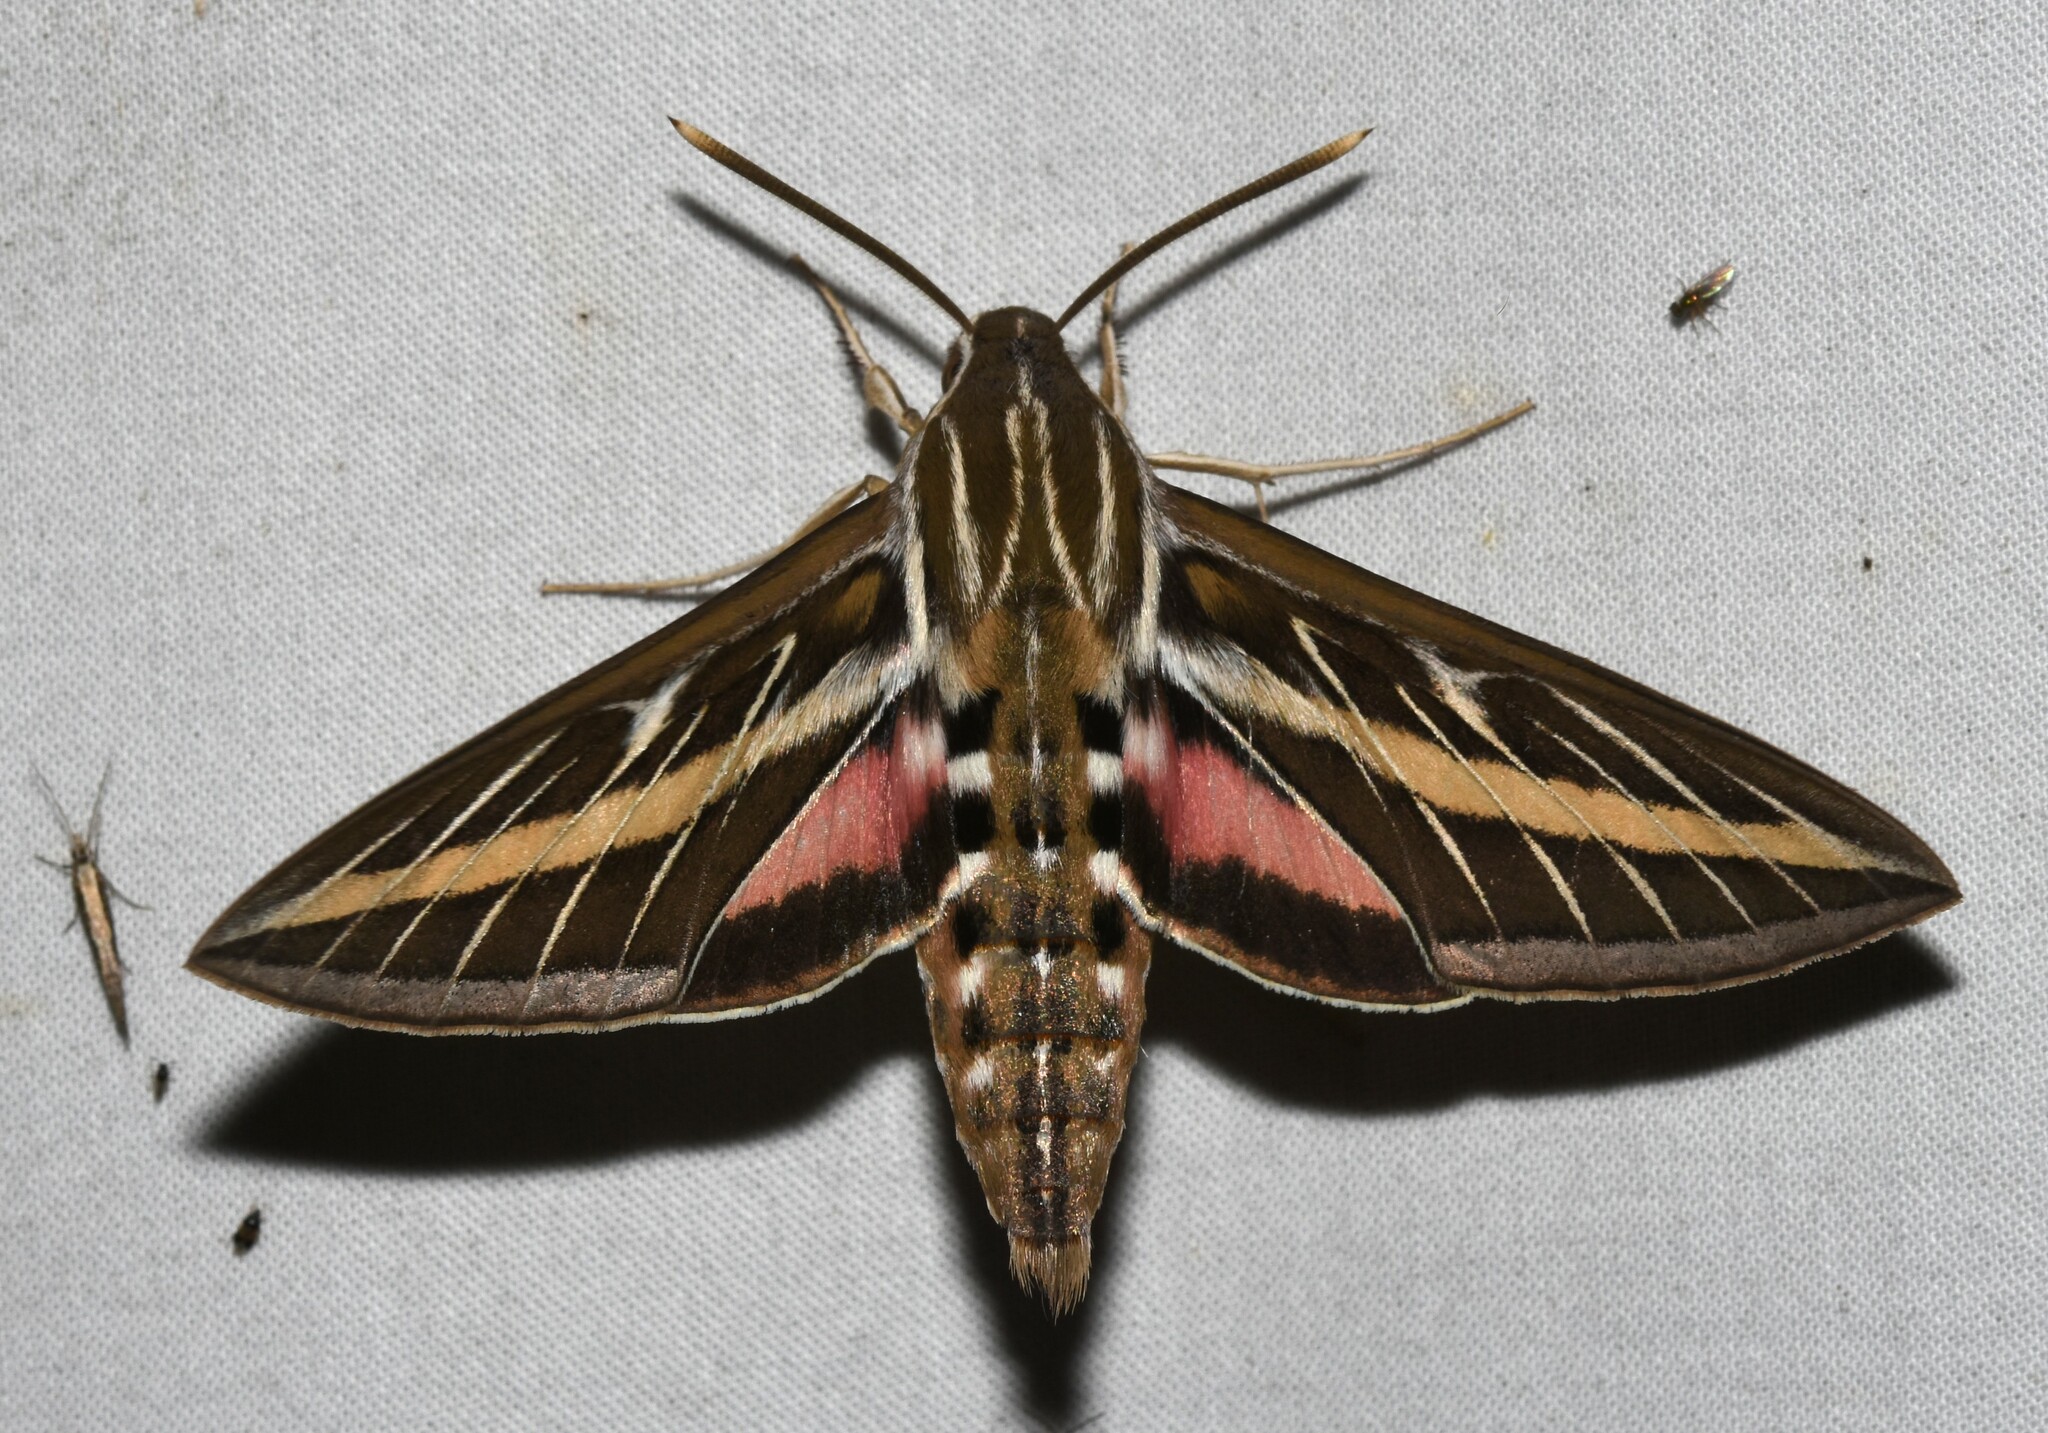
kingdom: Animalia
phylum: Arthropoda
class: Insecta
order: Lepidoptera
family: Sphingidae
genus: Hyles
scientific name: Hyles lineata
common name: White-lined sphinx
